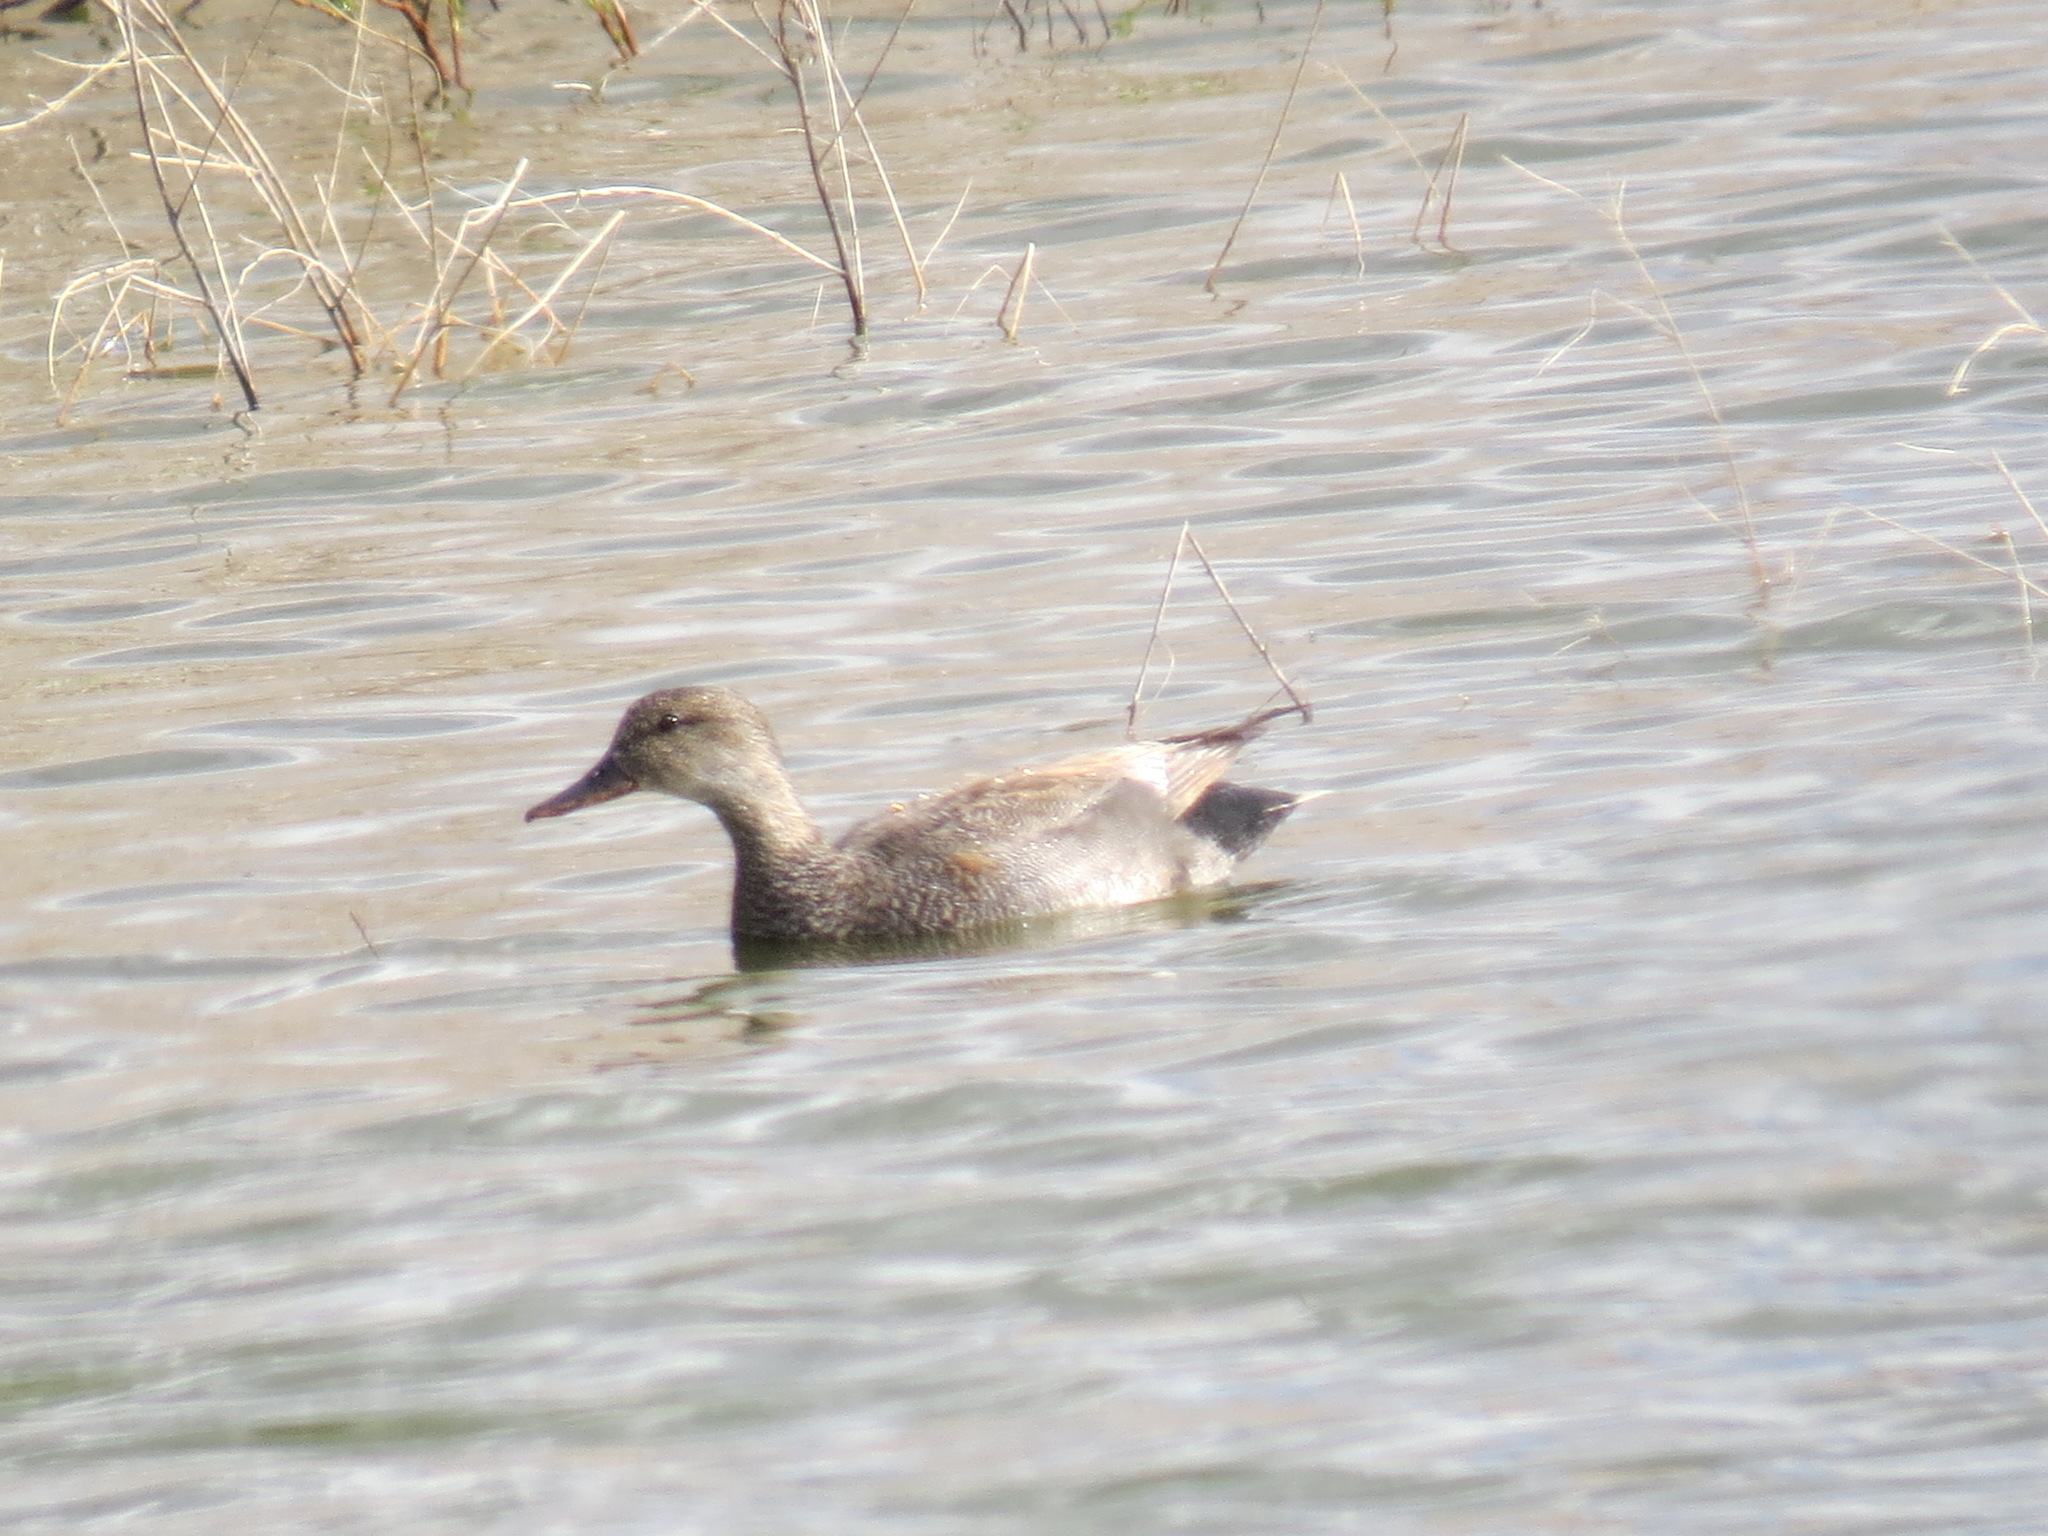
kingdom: Animalia
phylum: Chordata
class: Aves
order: Anseriformes
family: Anatidae
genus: Mareca
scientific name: Mareca strepera
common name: Gadwall
